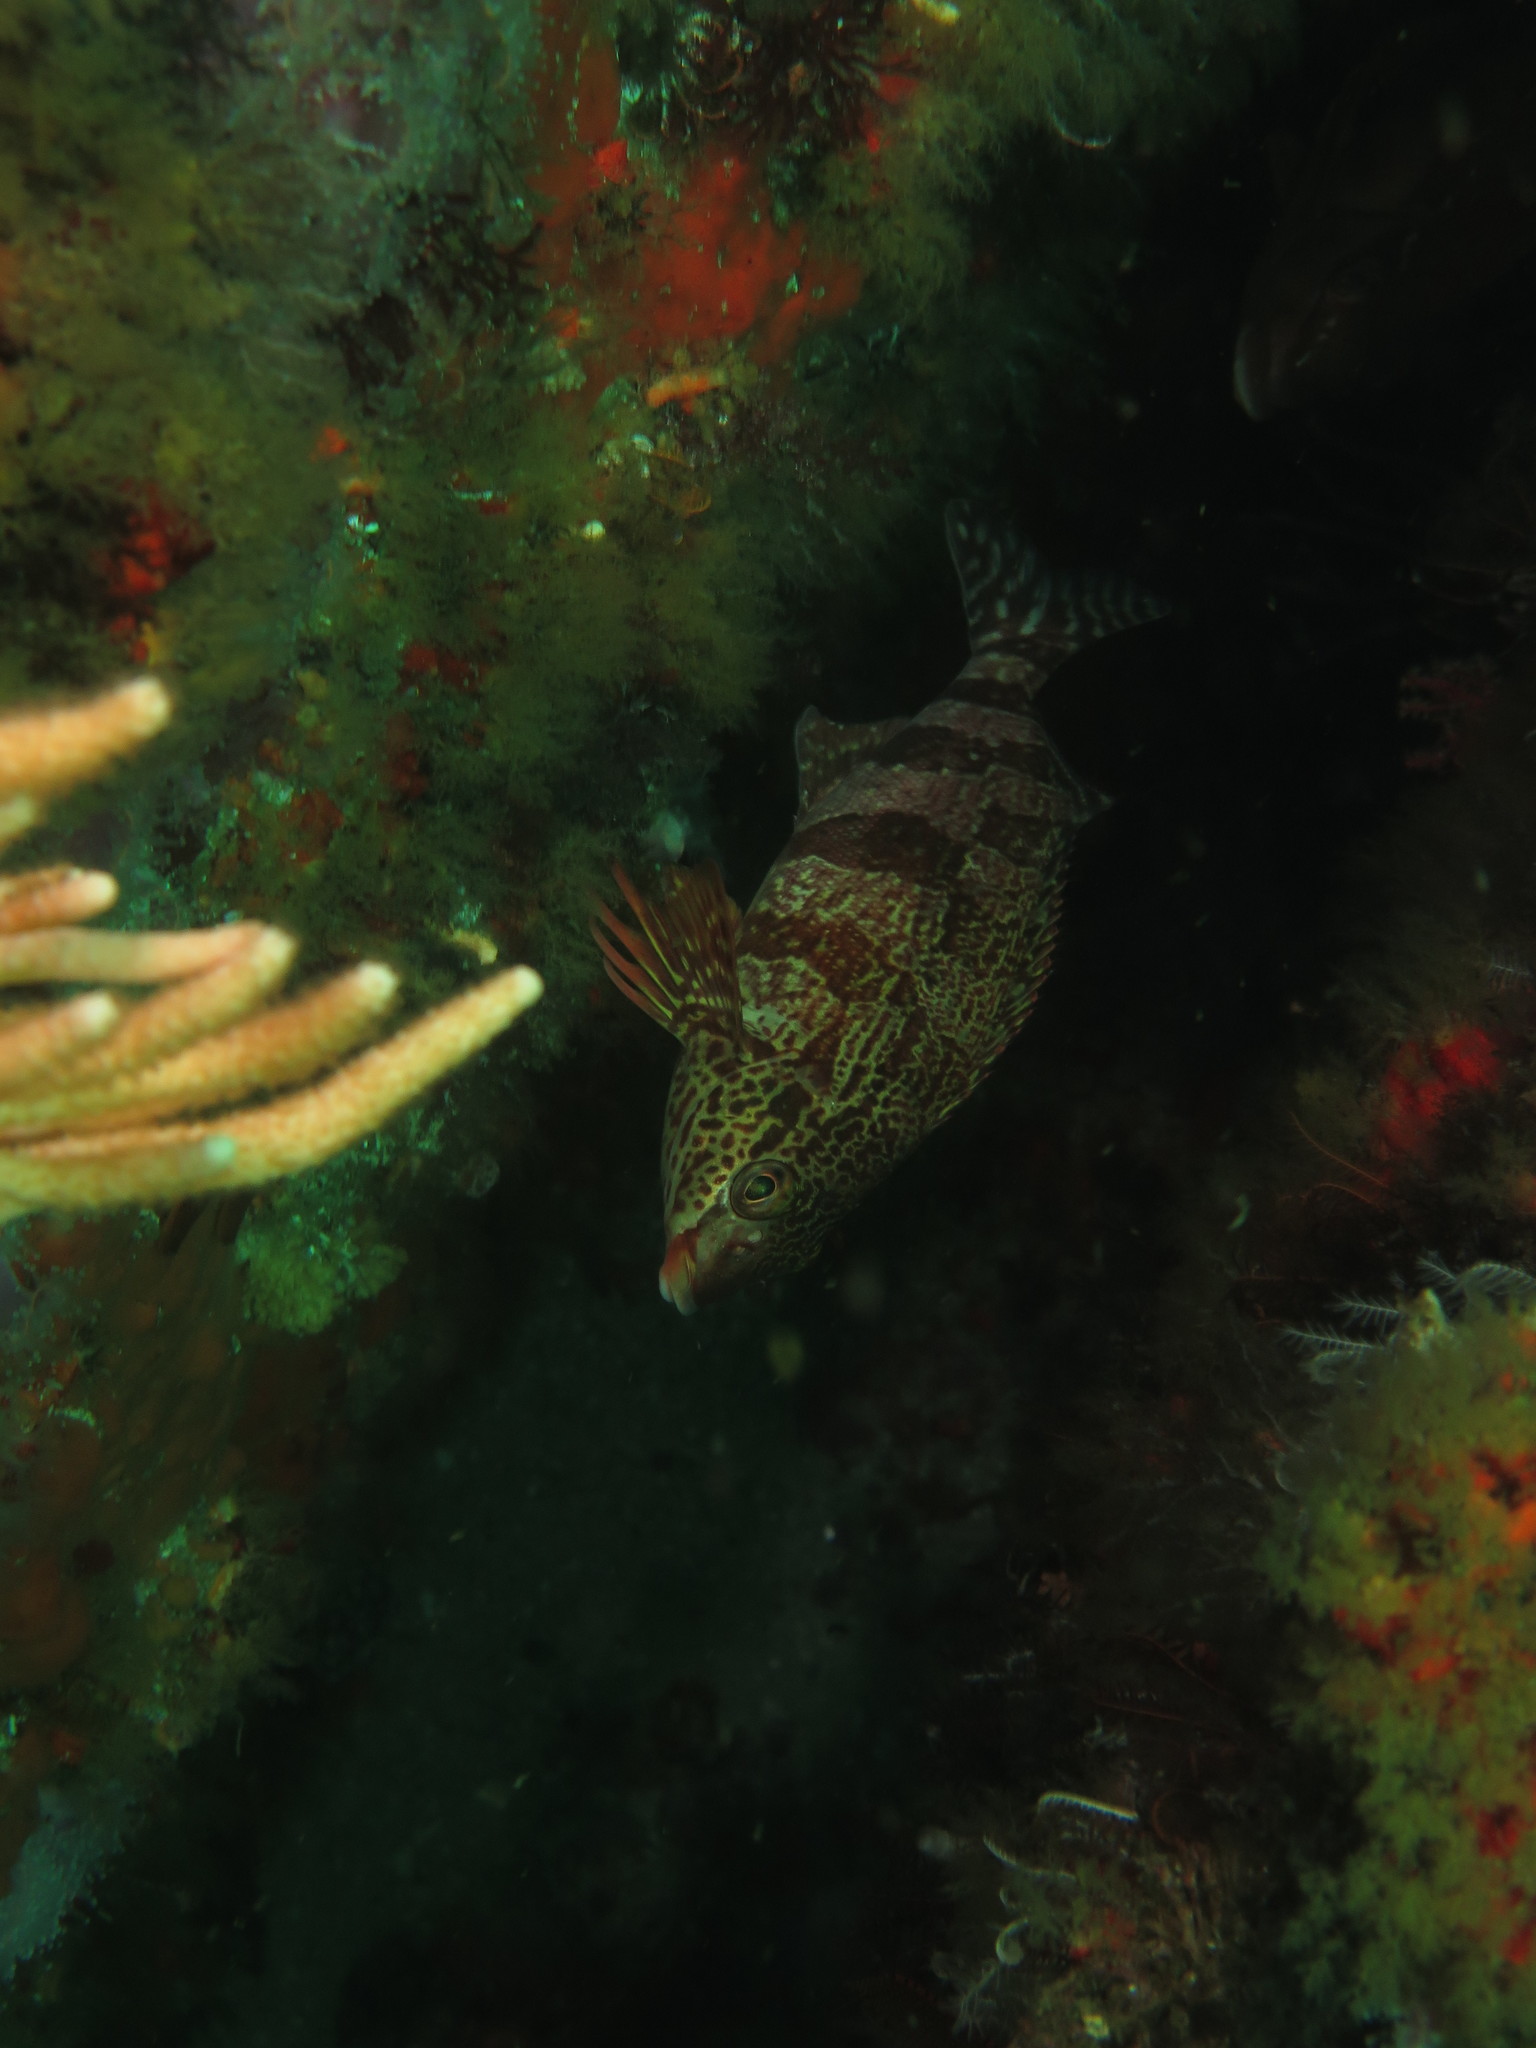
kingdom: Animalia
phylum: Chordata
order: Perciformes
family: Cheilodactylidae
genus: Cheilodactylus
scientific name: Cheilodactylus fasciatus
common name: Redfingers
